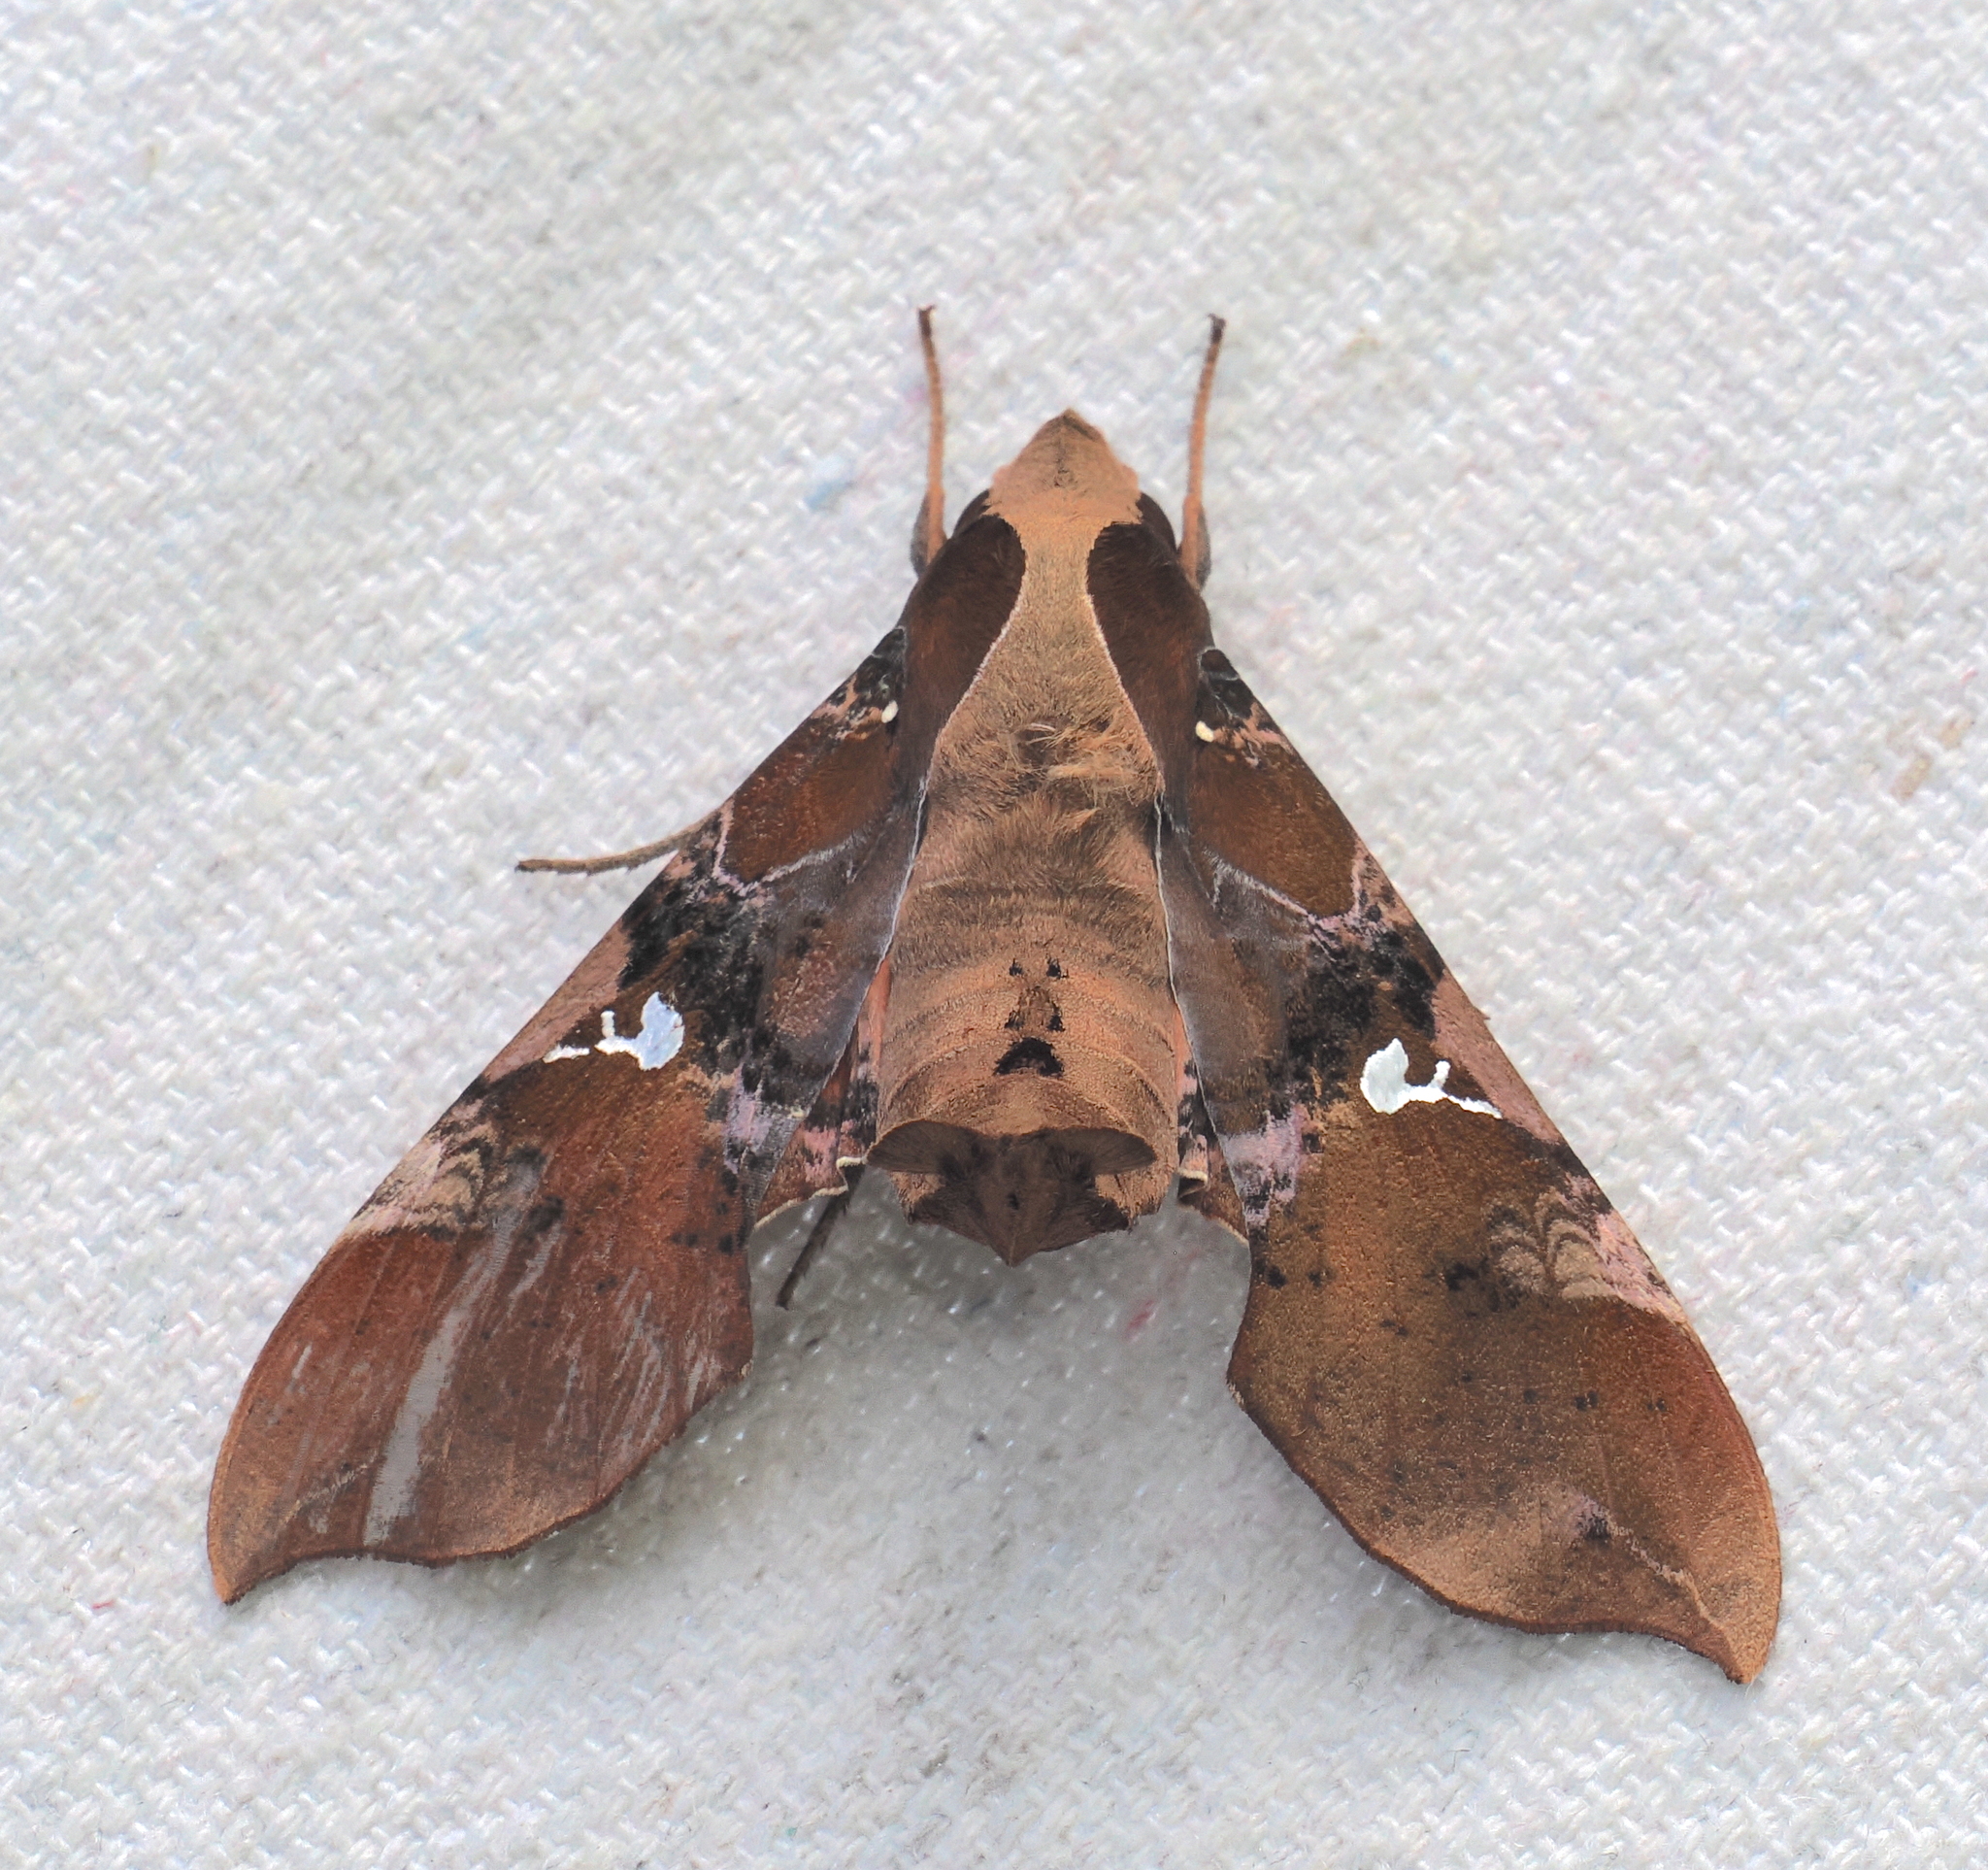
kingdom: Animalia
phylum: Arthropoda
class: Insecta
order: Lepidoptera
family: Sphingidae
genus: Callionima
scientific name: Callionima falcifera
